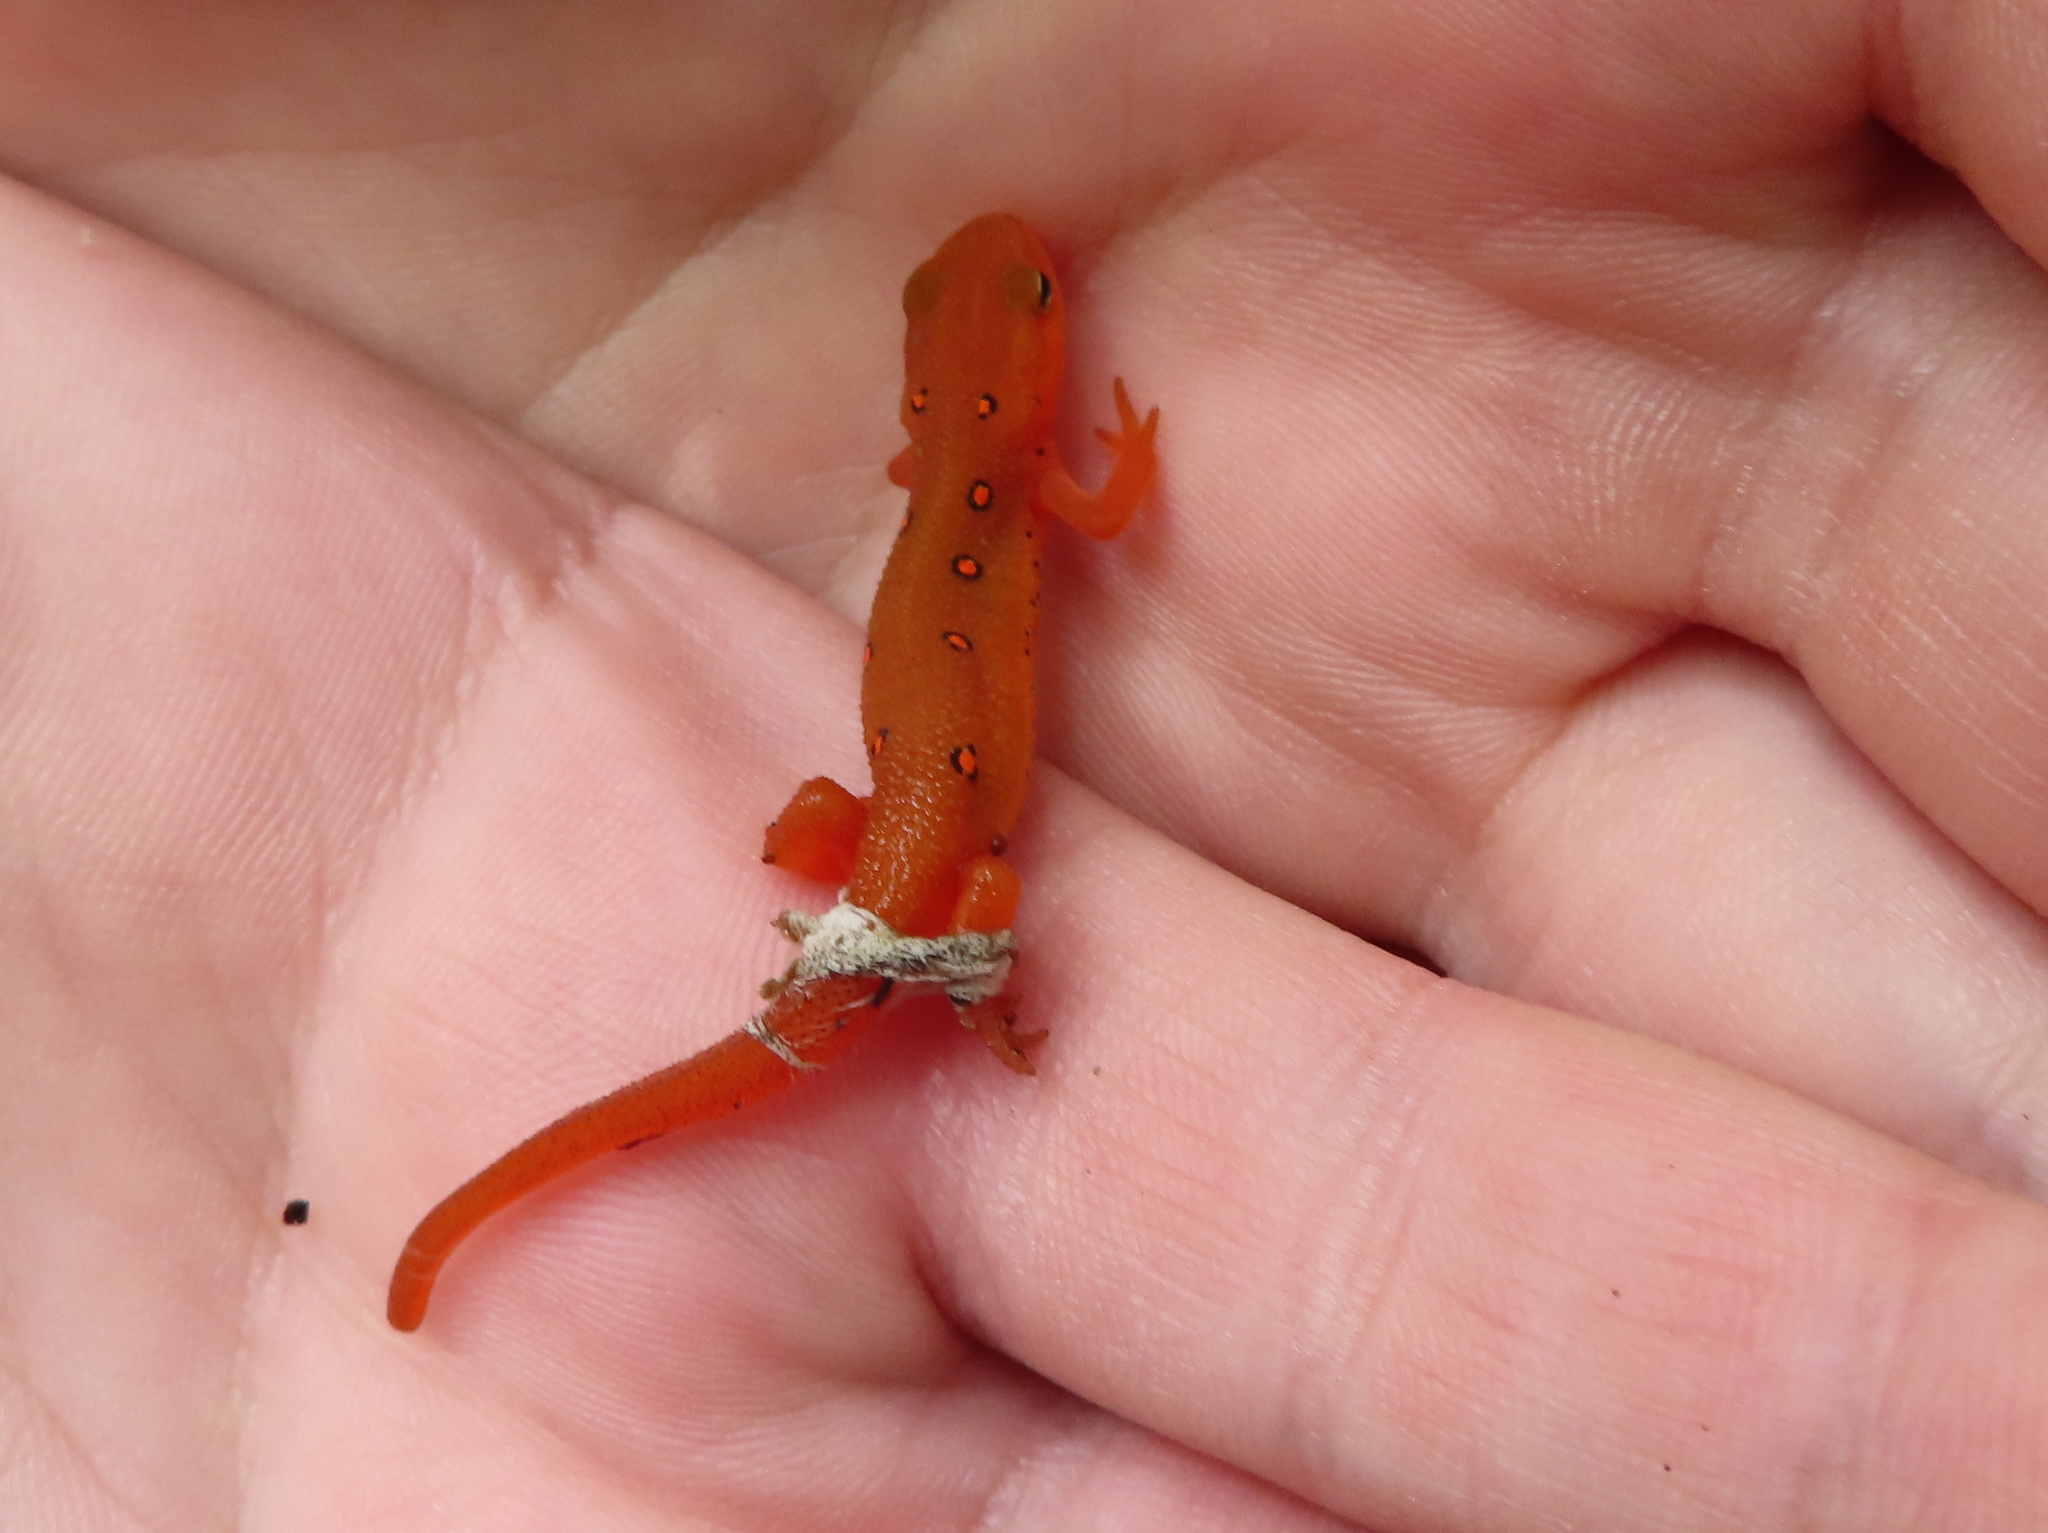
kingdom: Animalia
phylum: Chordata
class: Amphibia
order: Caudata
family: Salamandridae
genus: Notophthalmus
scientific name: Notophthalmus viridescens
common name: Eastern newt
